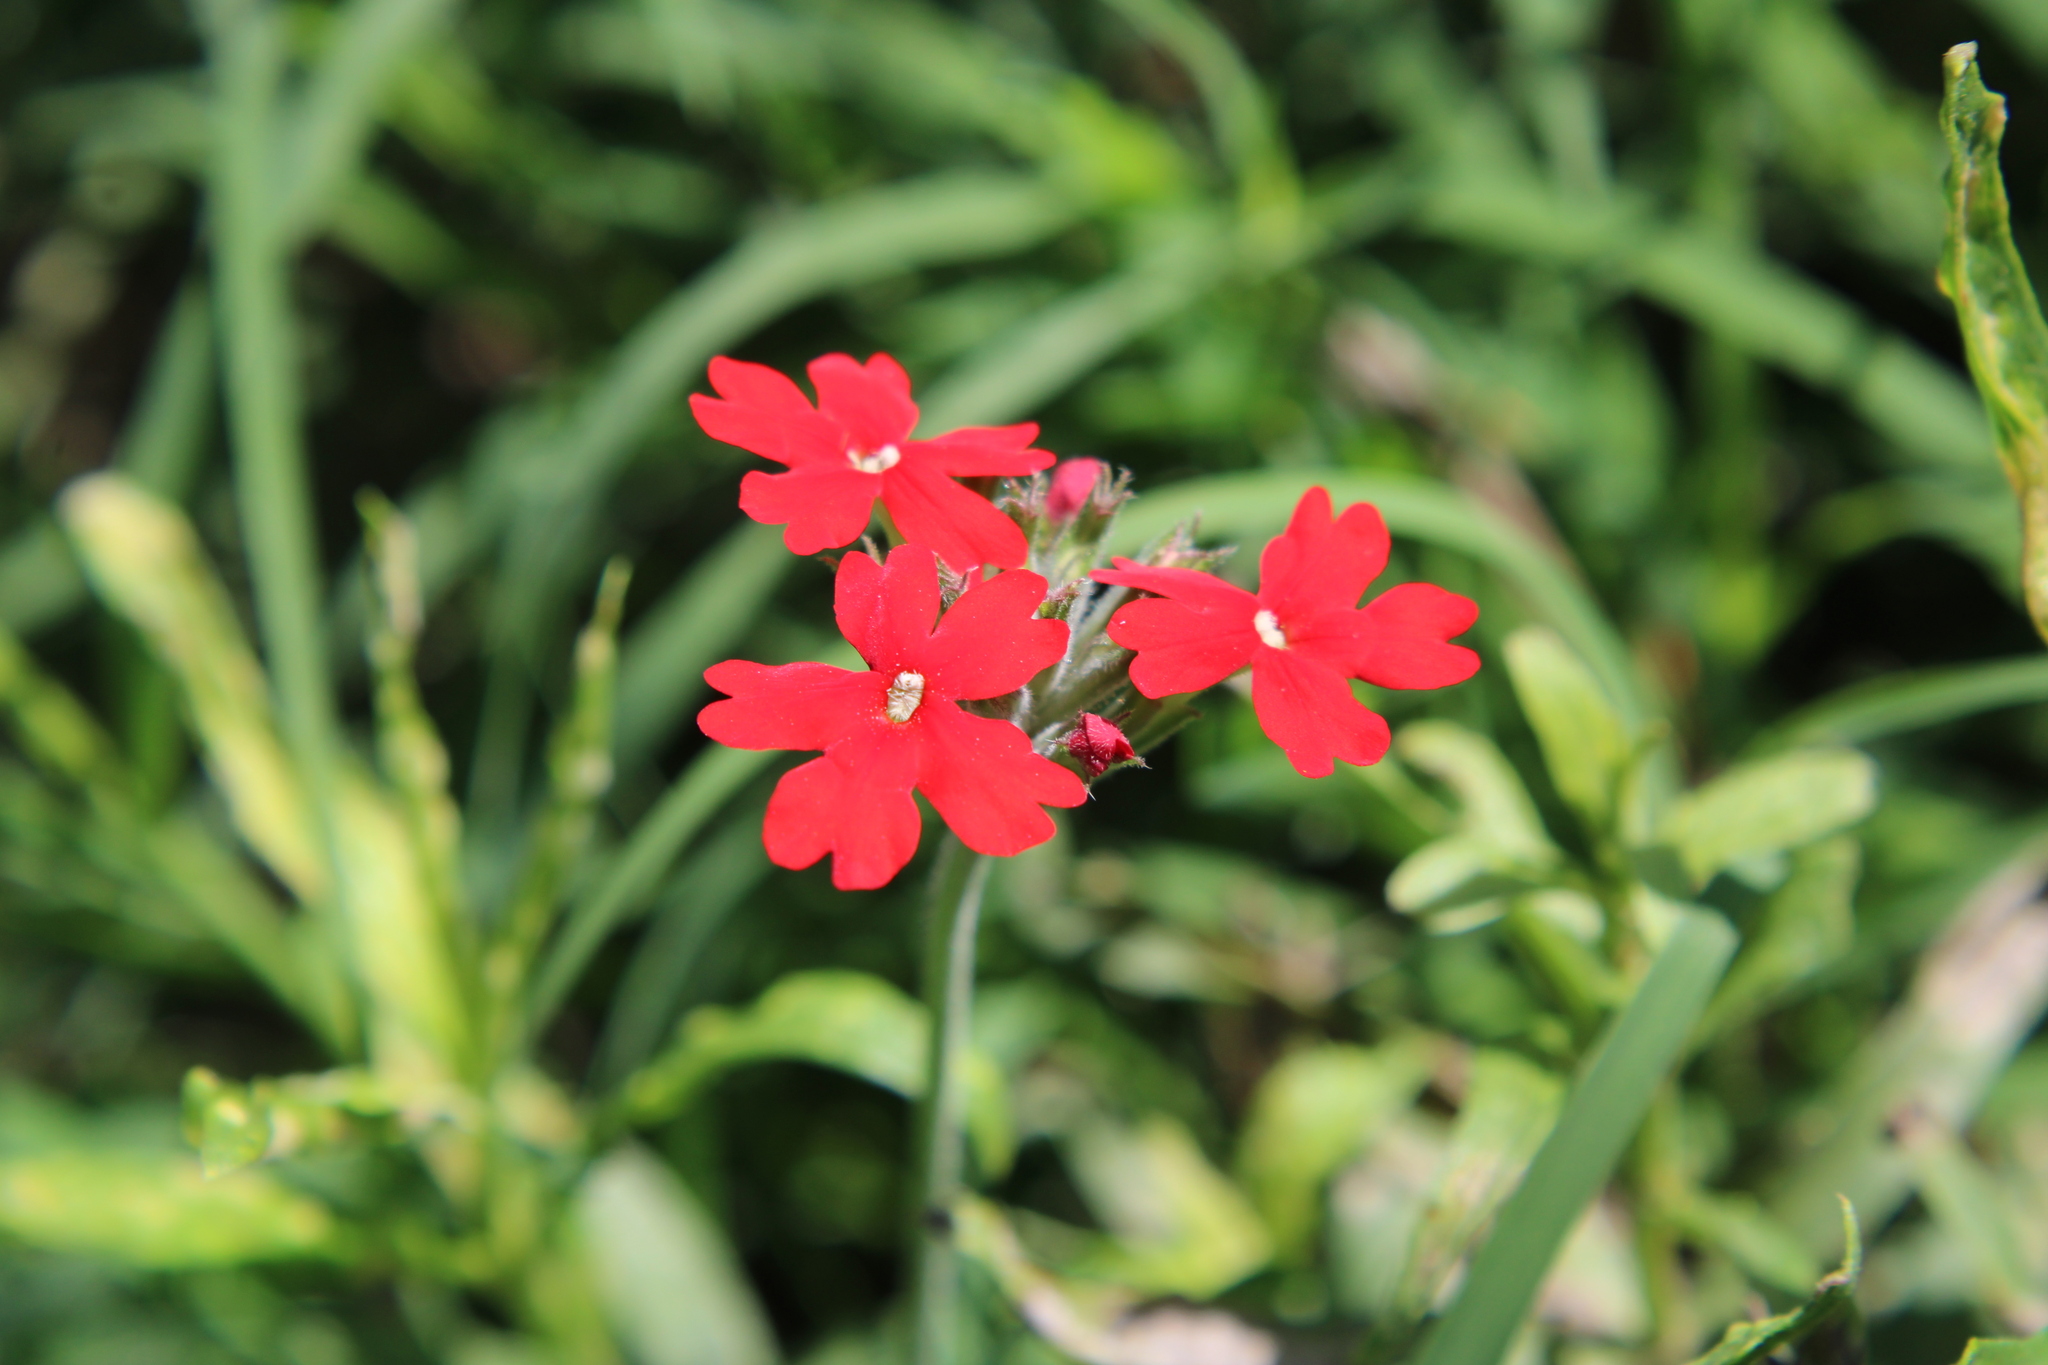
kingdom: Plantae
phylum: Tracheophyta
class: Magnoliopsida
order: Lamiales
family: Verbenaceae
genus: Verbena
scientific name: Verbena tweedieana
